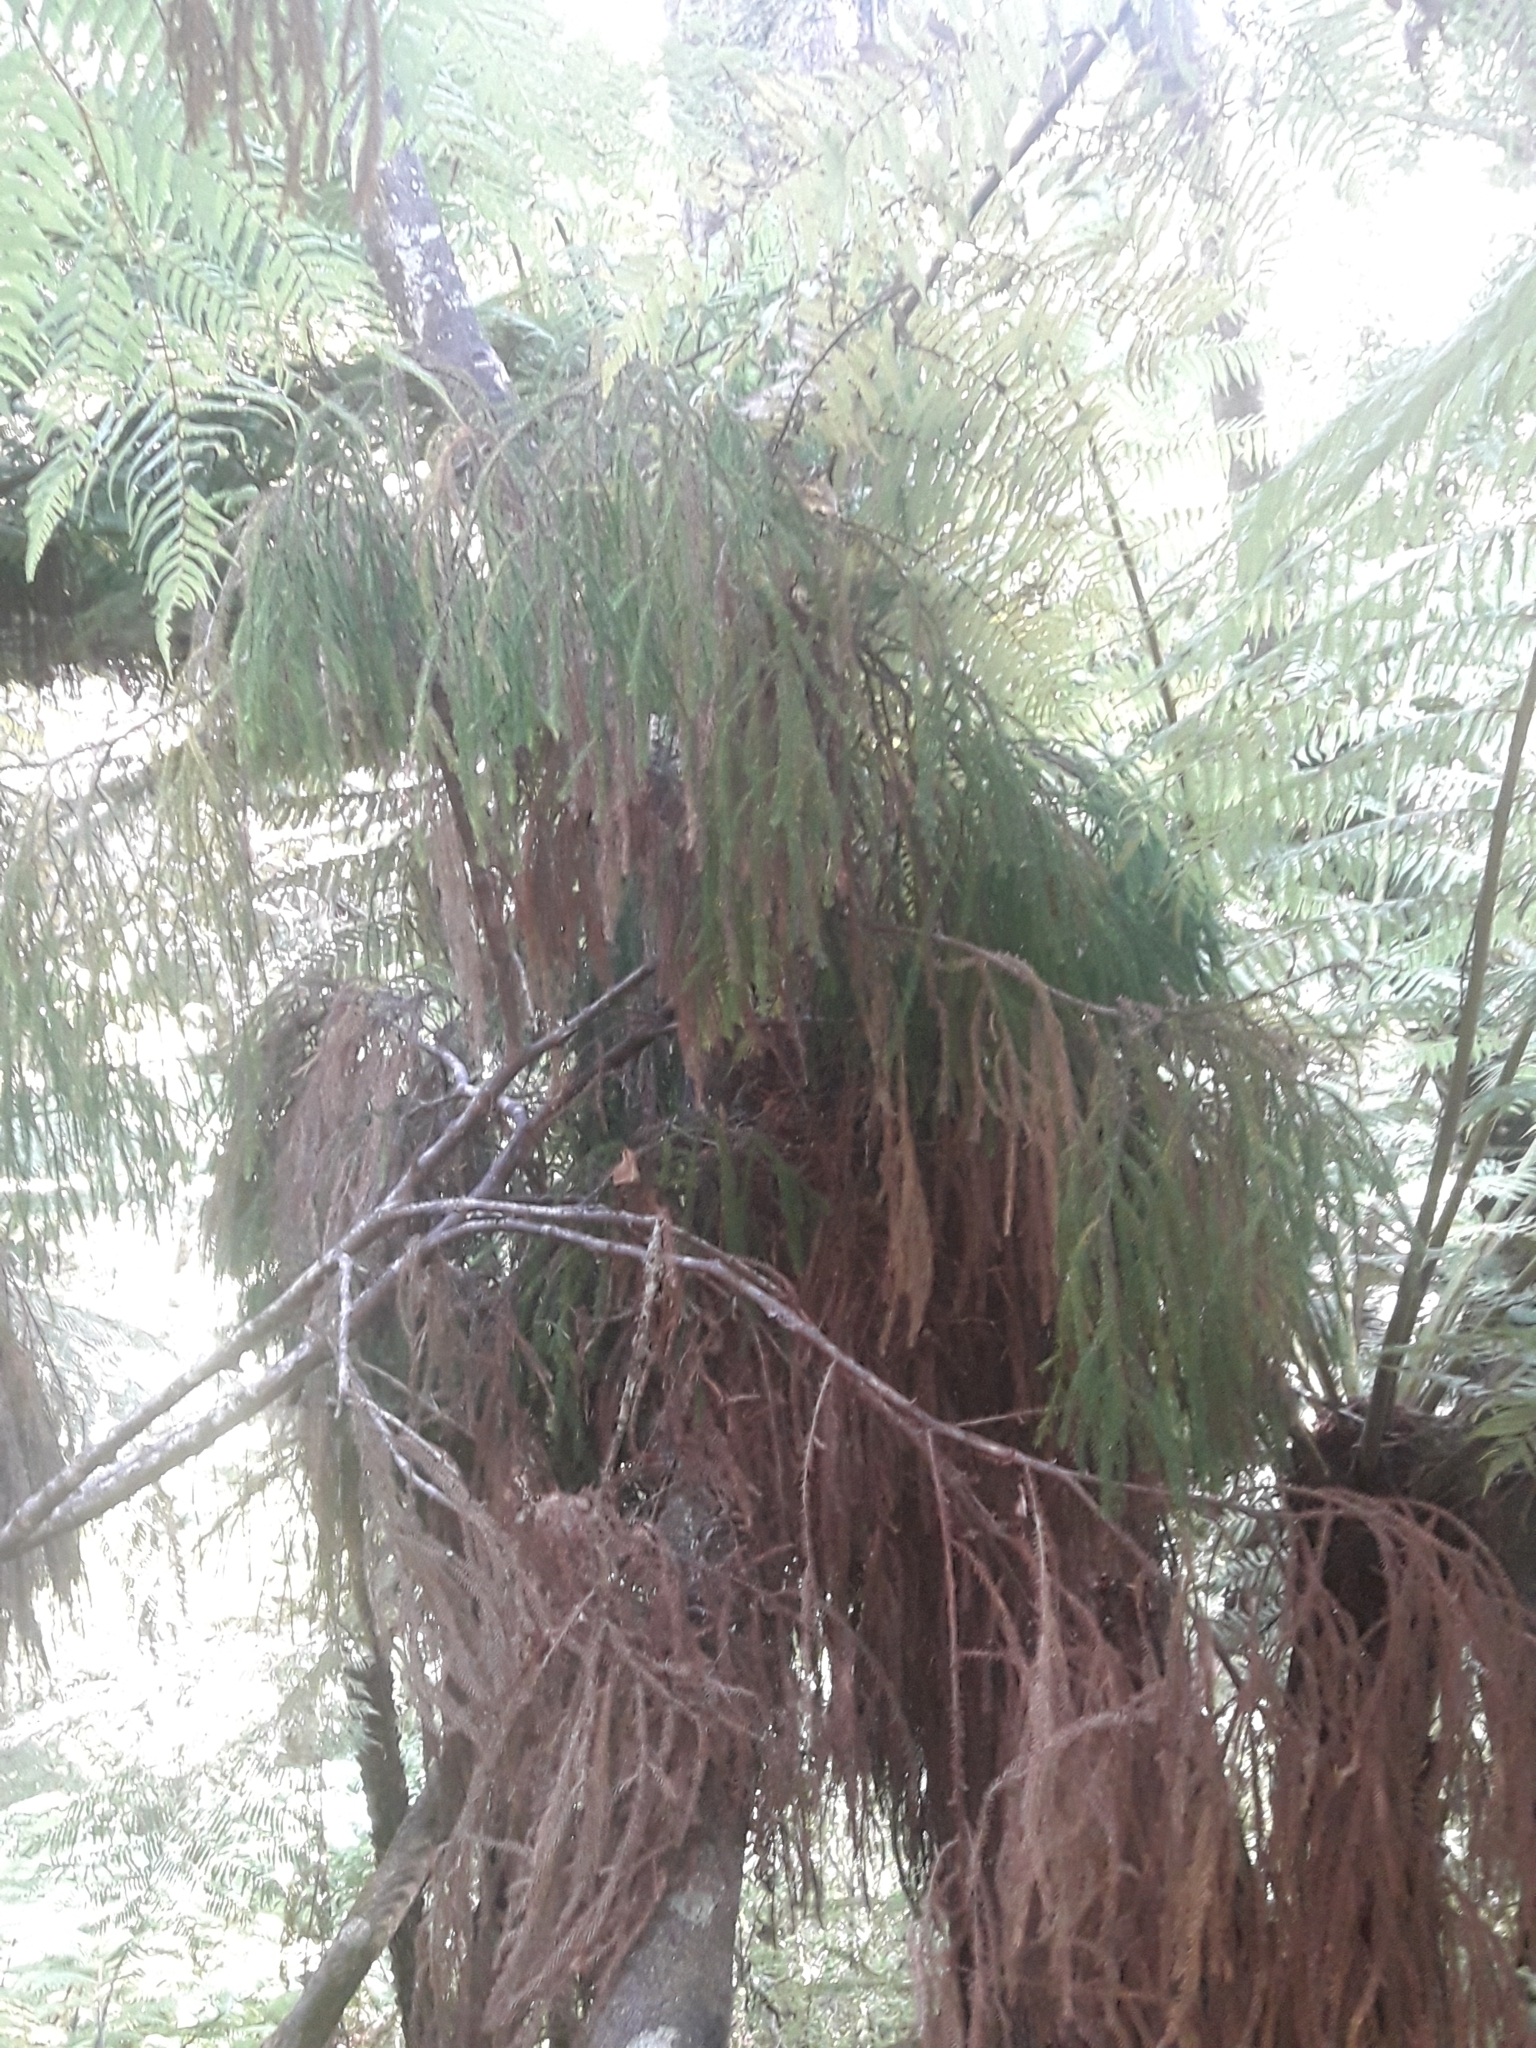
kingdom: Plantae
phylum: Tracheophyta
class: Pinopsida
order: Pinales
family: Podocarpaceae
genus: Dacrydium
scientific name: Dacrydium cupressinum
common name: Red pine
